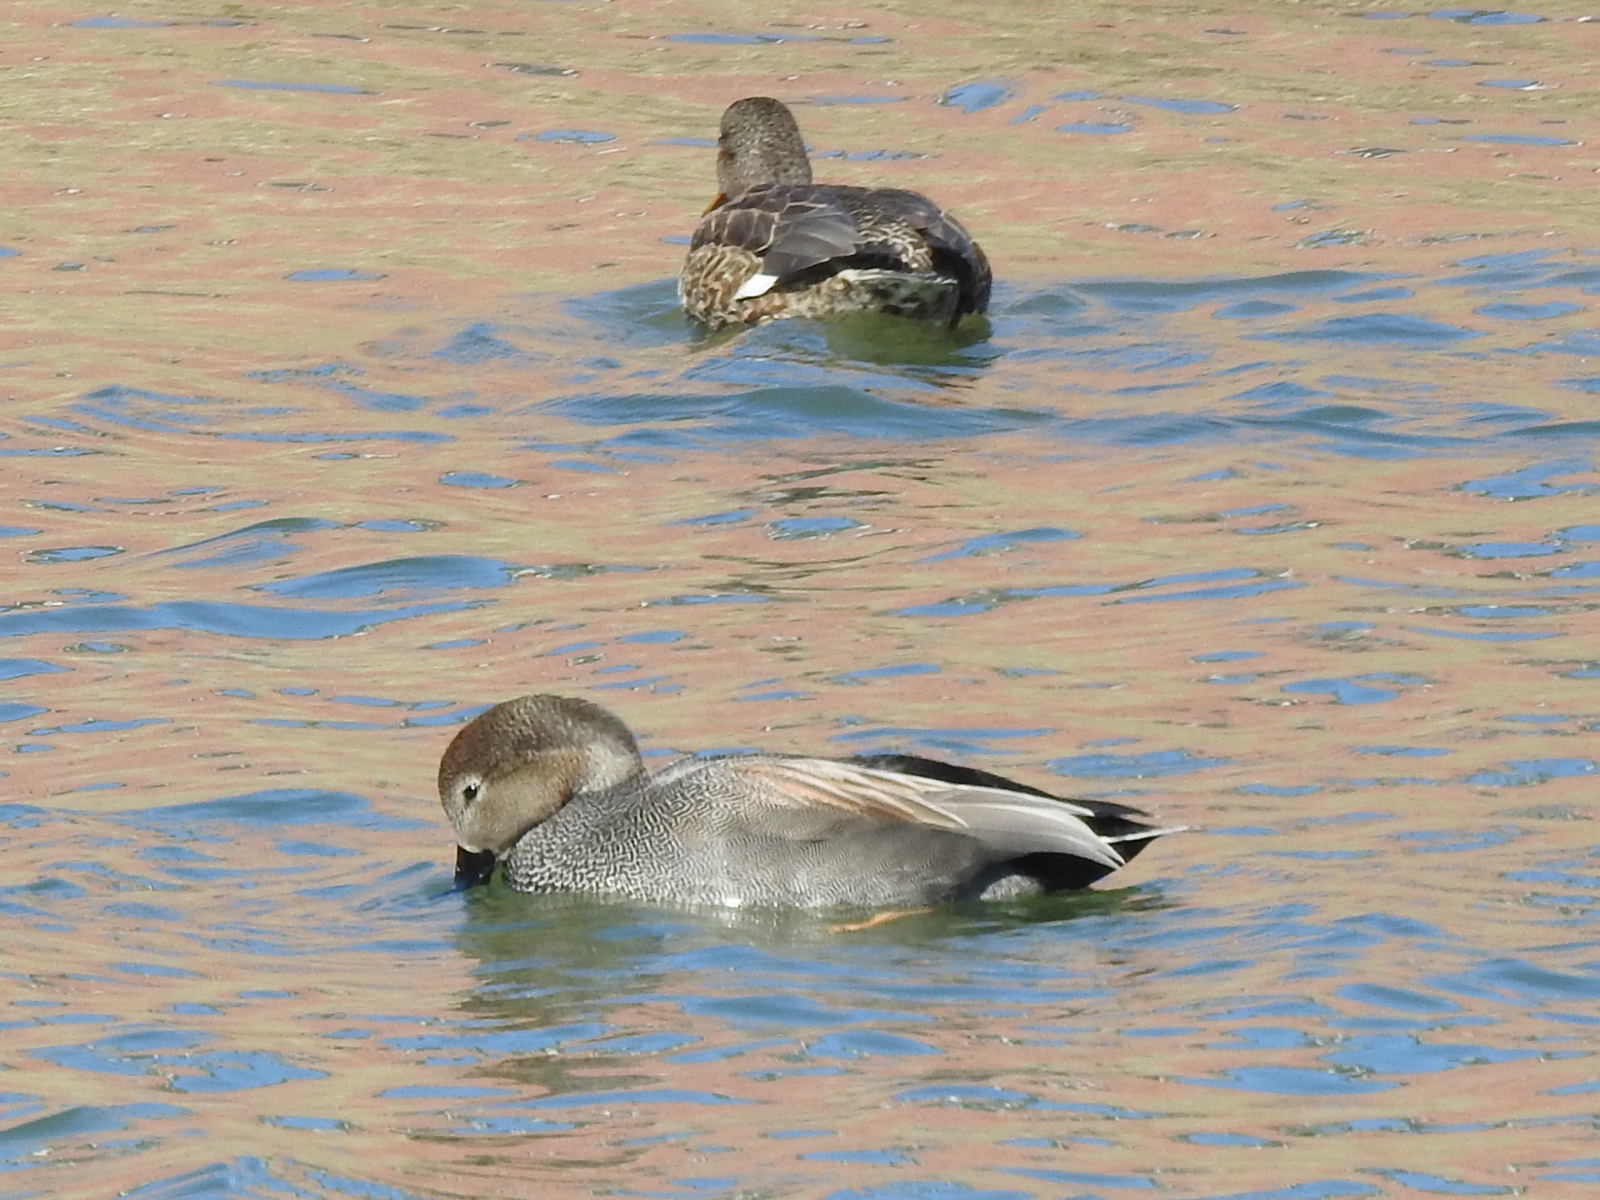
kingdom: Animalia
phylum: Chordata
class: Aves
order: Anseriformes
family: Anatidae
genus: Mareca
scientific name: Mareca strepera
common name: Gadwall
